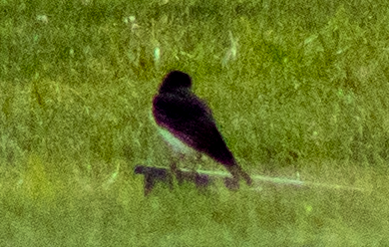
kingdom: Animalia
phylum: Chordata
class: Aves
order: Passeriformes
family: Tyrannidae
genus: Tyrannus
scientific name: Tyrannus tyrannus
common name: Eastern kingbird
